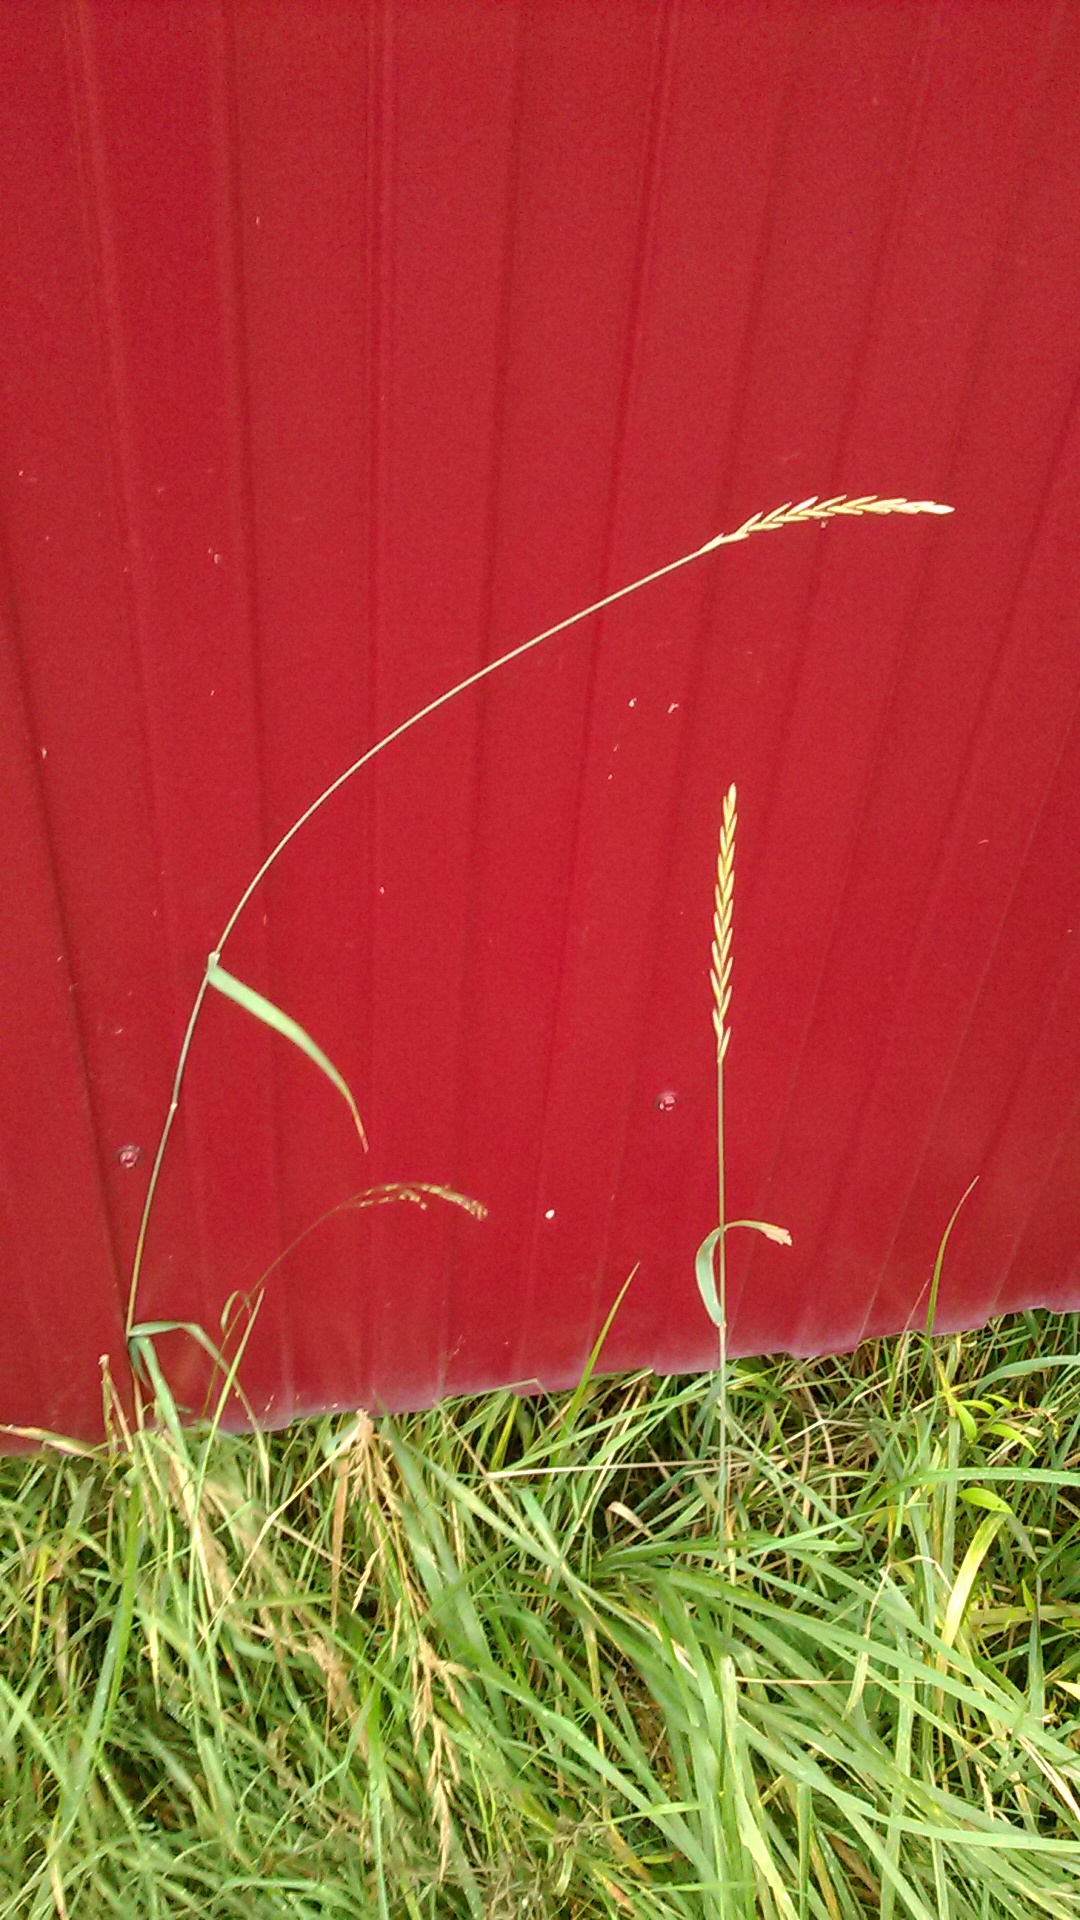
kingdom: Plantae
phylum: Tracheophyta
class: Liliopsida
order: Poales
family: Poaceae
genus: Elymus
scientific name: Elymus repens
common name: Quackgrass
